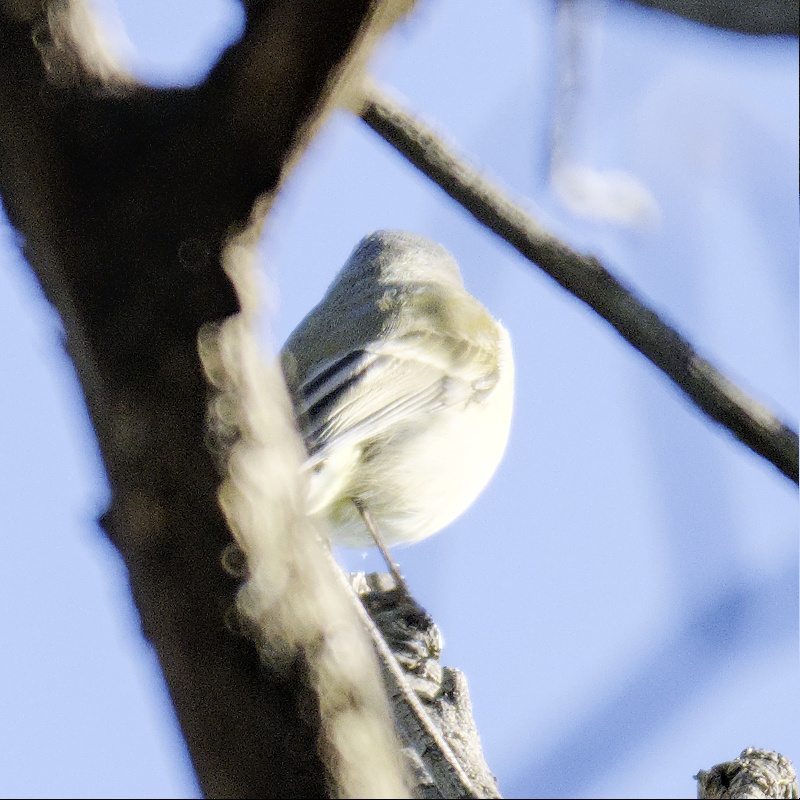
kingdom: Animalia
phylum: Chordata
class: Aves
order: Passeriformes
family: Pachycephalidae
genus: Pachycephala
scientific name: Pachycephala pectoralis
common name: Australian golden whistler
